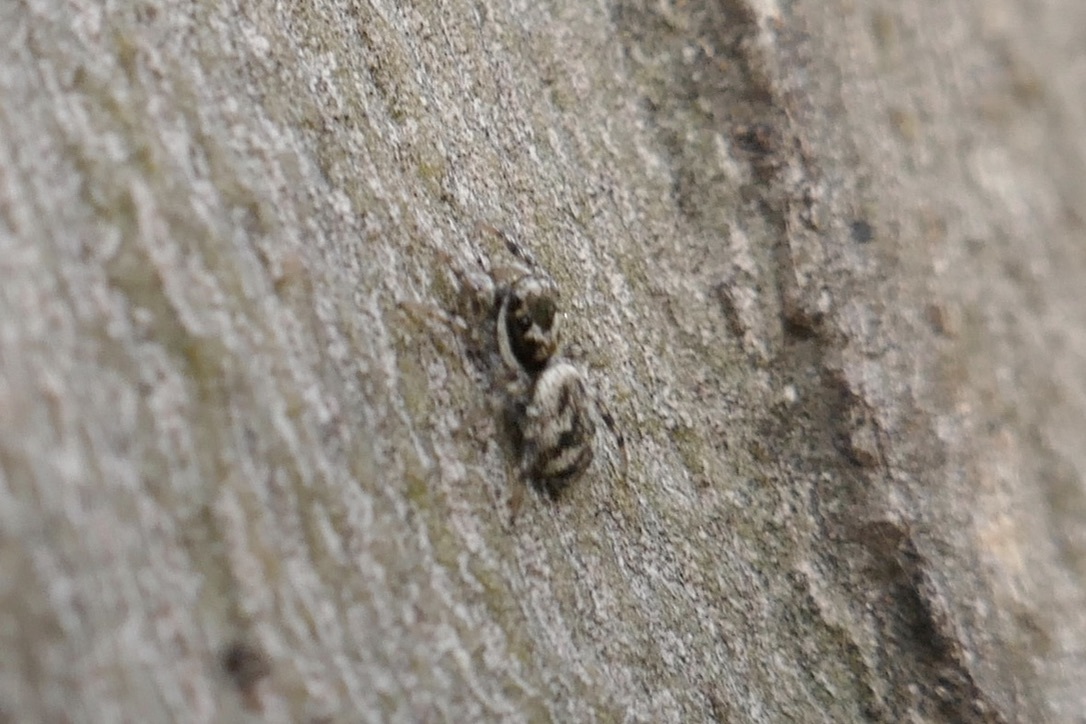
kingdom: Animalia
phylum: Arthropoda
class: Arachnida
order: Araneae
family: Salticidae
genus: Salticus
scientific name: Salticus scenicus
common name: Zebra jumper
